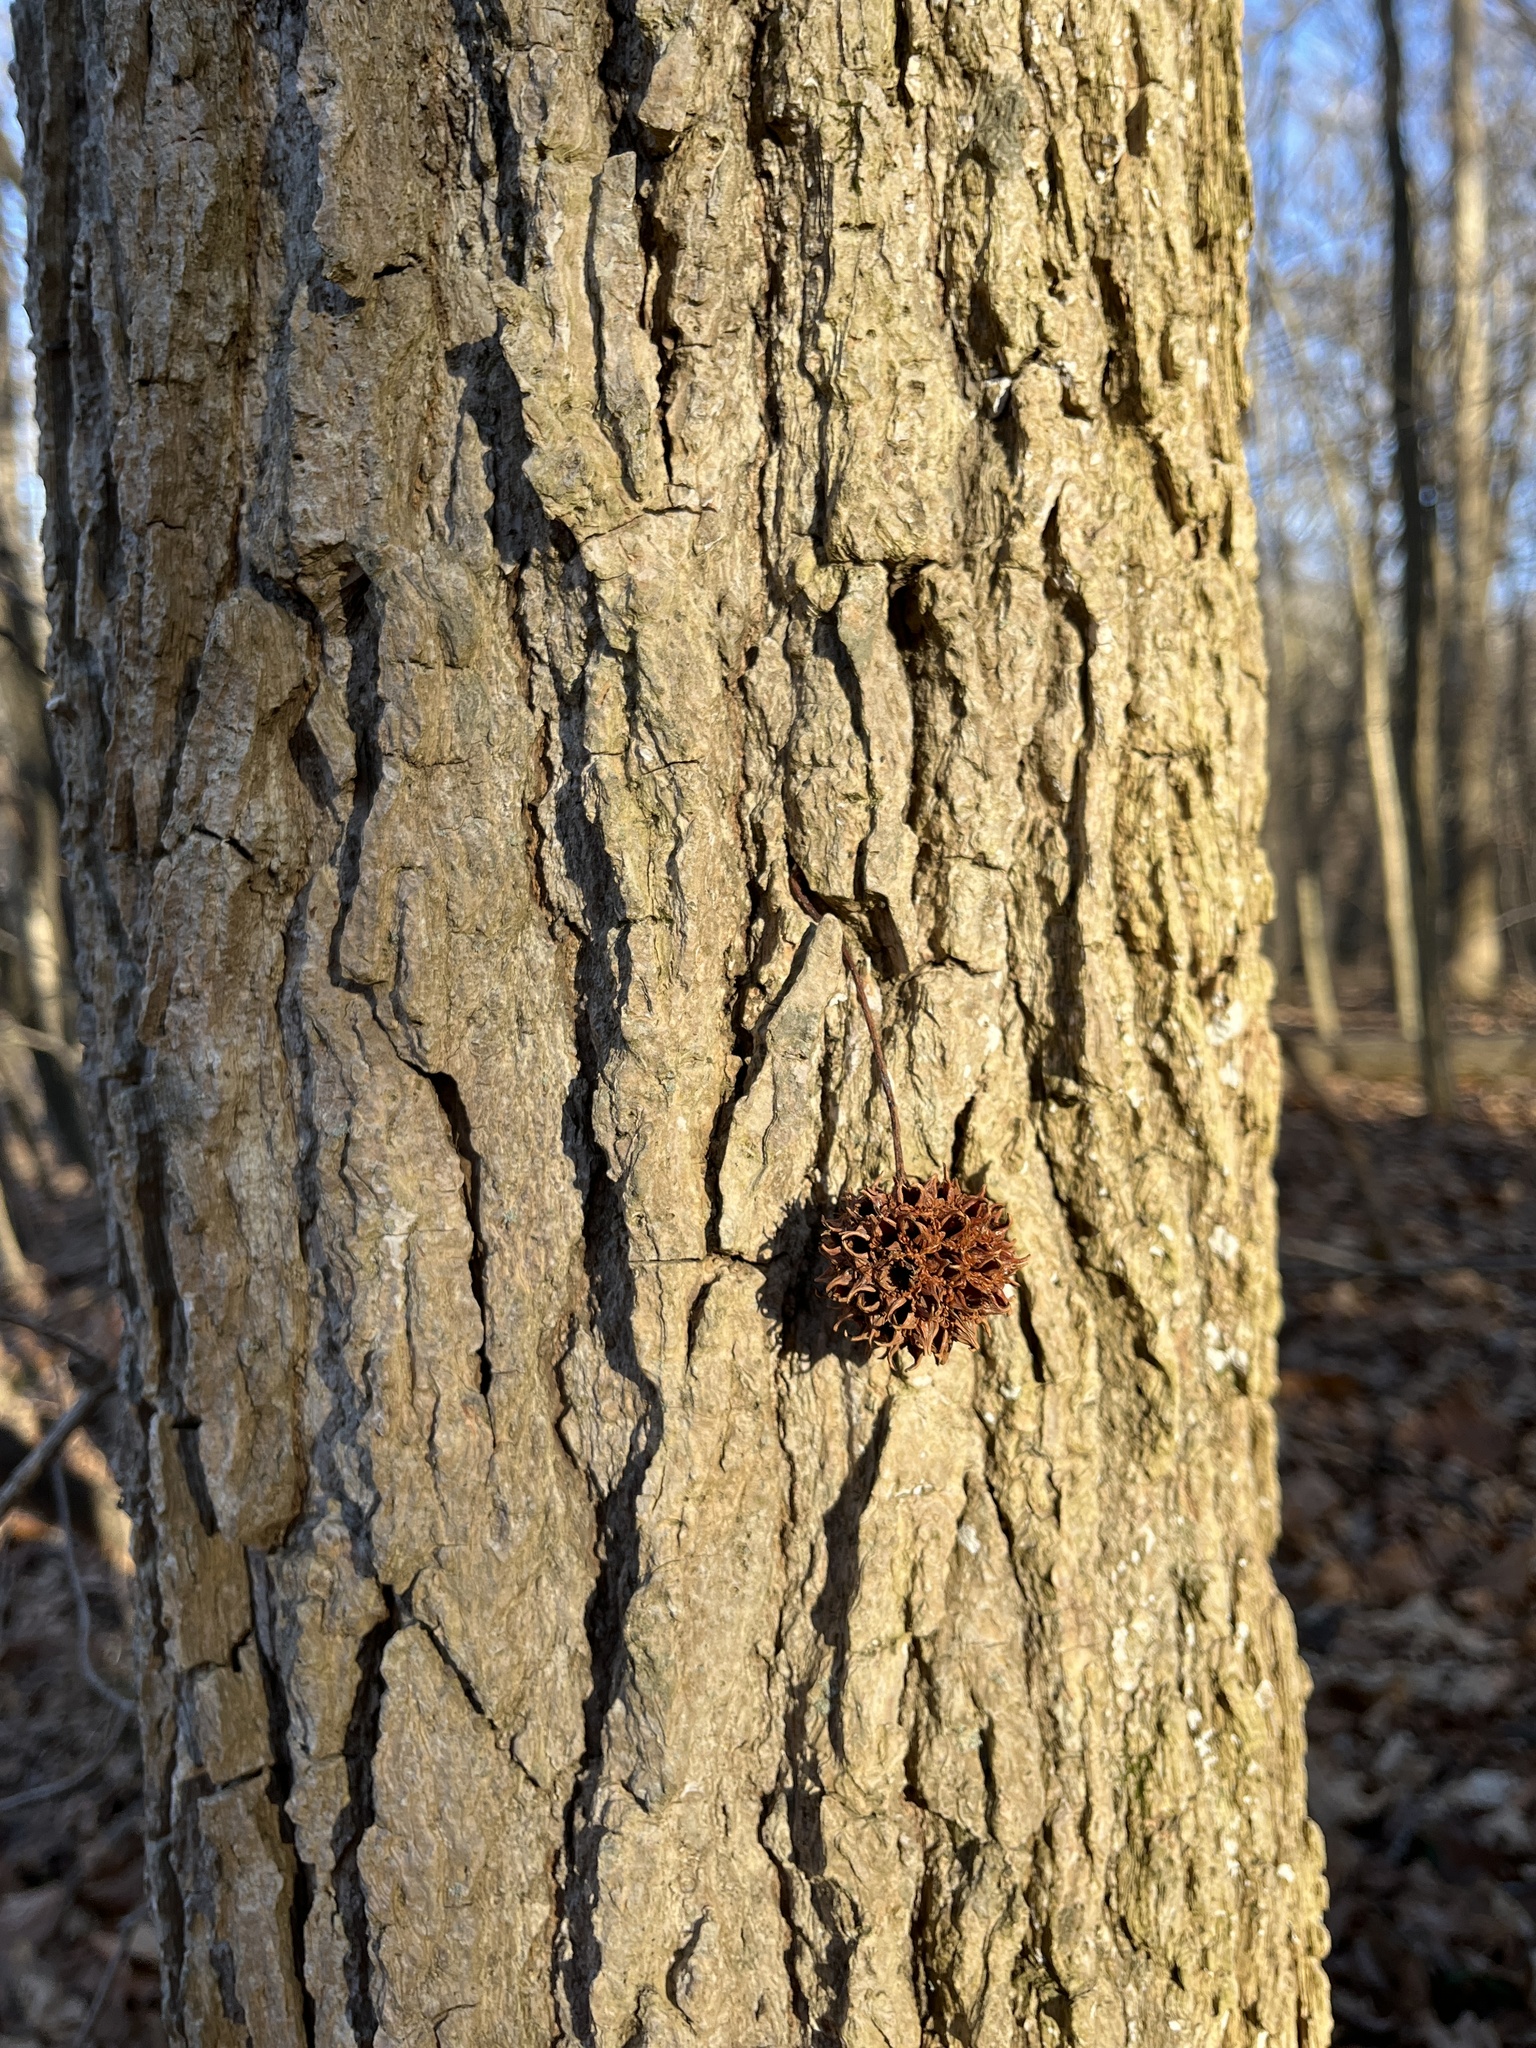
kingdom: Plantae
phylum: Tracheophyta
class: Magnoliopsida
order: Saxifragales
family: Altingiaceae
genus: Liquidambar
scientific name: Liquidambar styraciflua
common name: Sweet gum
